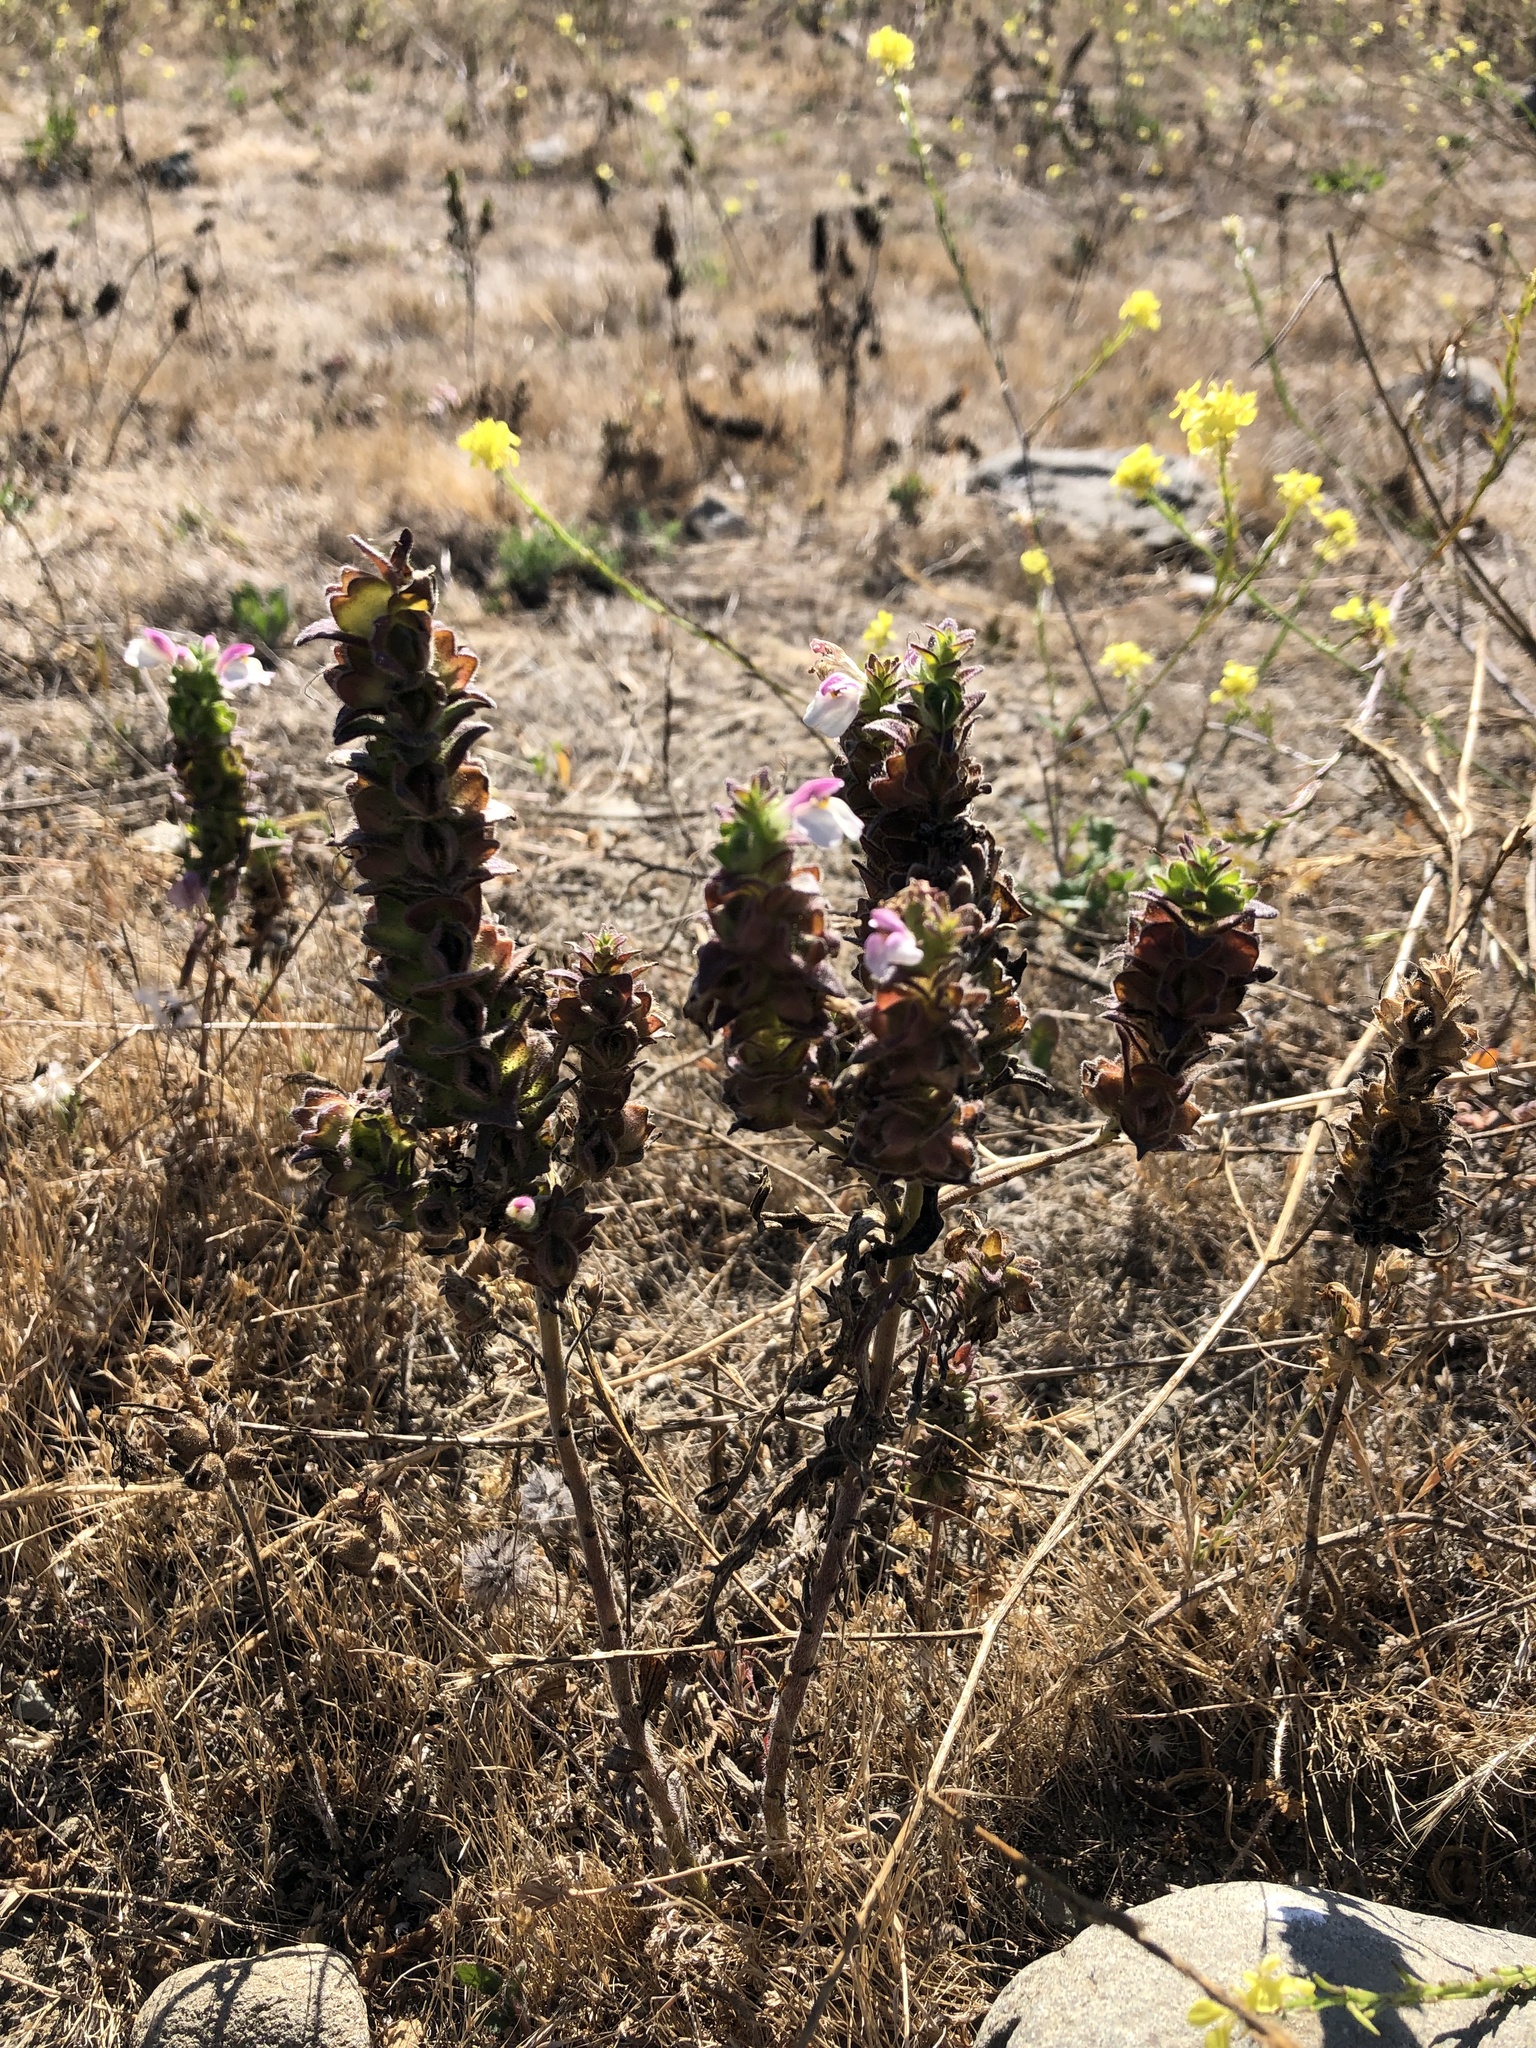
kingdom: Plantae
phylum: Tracheophyta
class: Magnoliopsida
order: Lamiales
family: Orobanchaceae
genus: Bellardia
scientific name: Bellardia trixago
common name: Mediterranean lineseed
